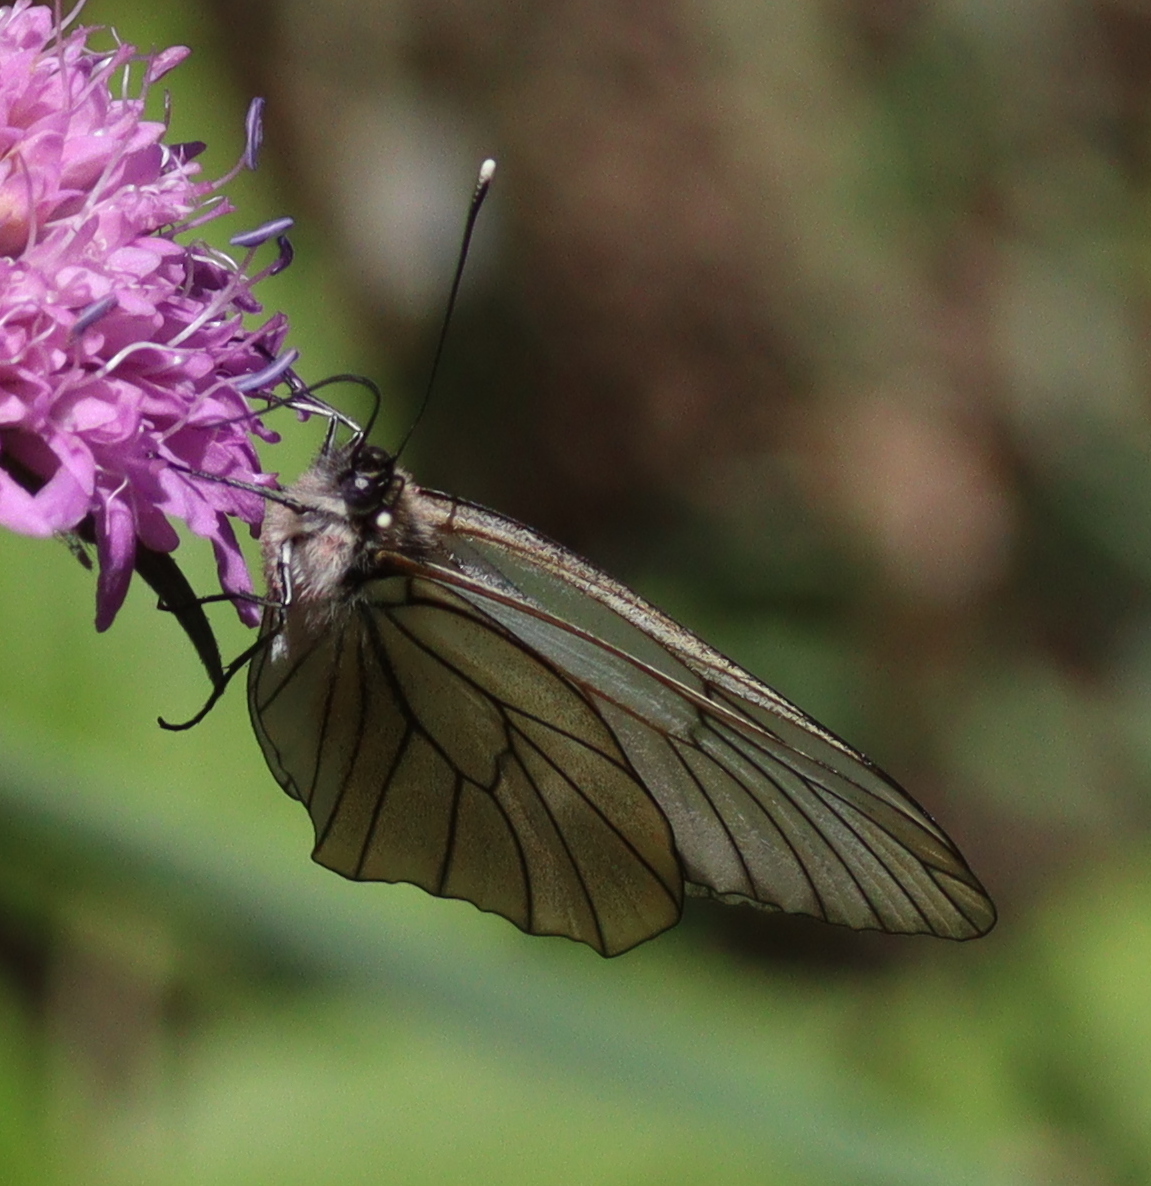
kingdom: Animalia
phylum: Arthropoda
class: Insecta
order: Lepidoptera
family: Pieridae
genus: Aporia
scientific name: Aporia crataegi
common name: Black-veined white
